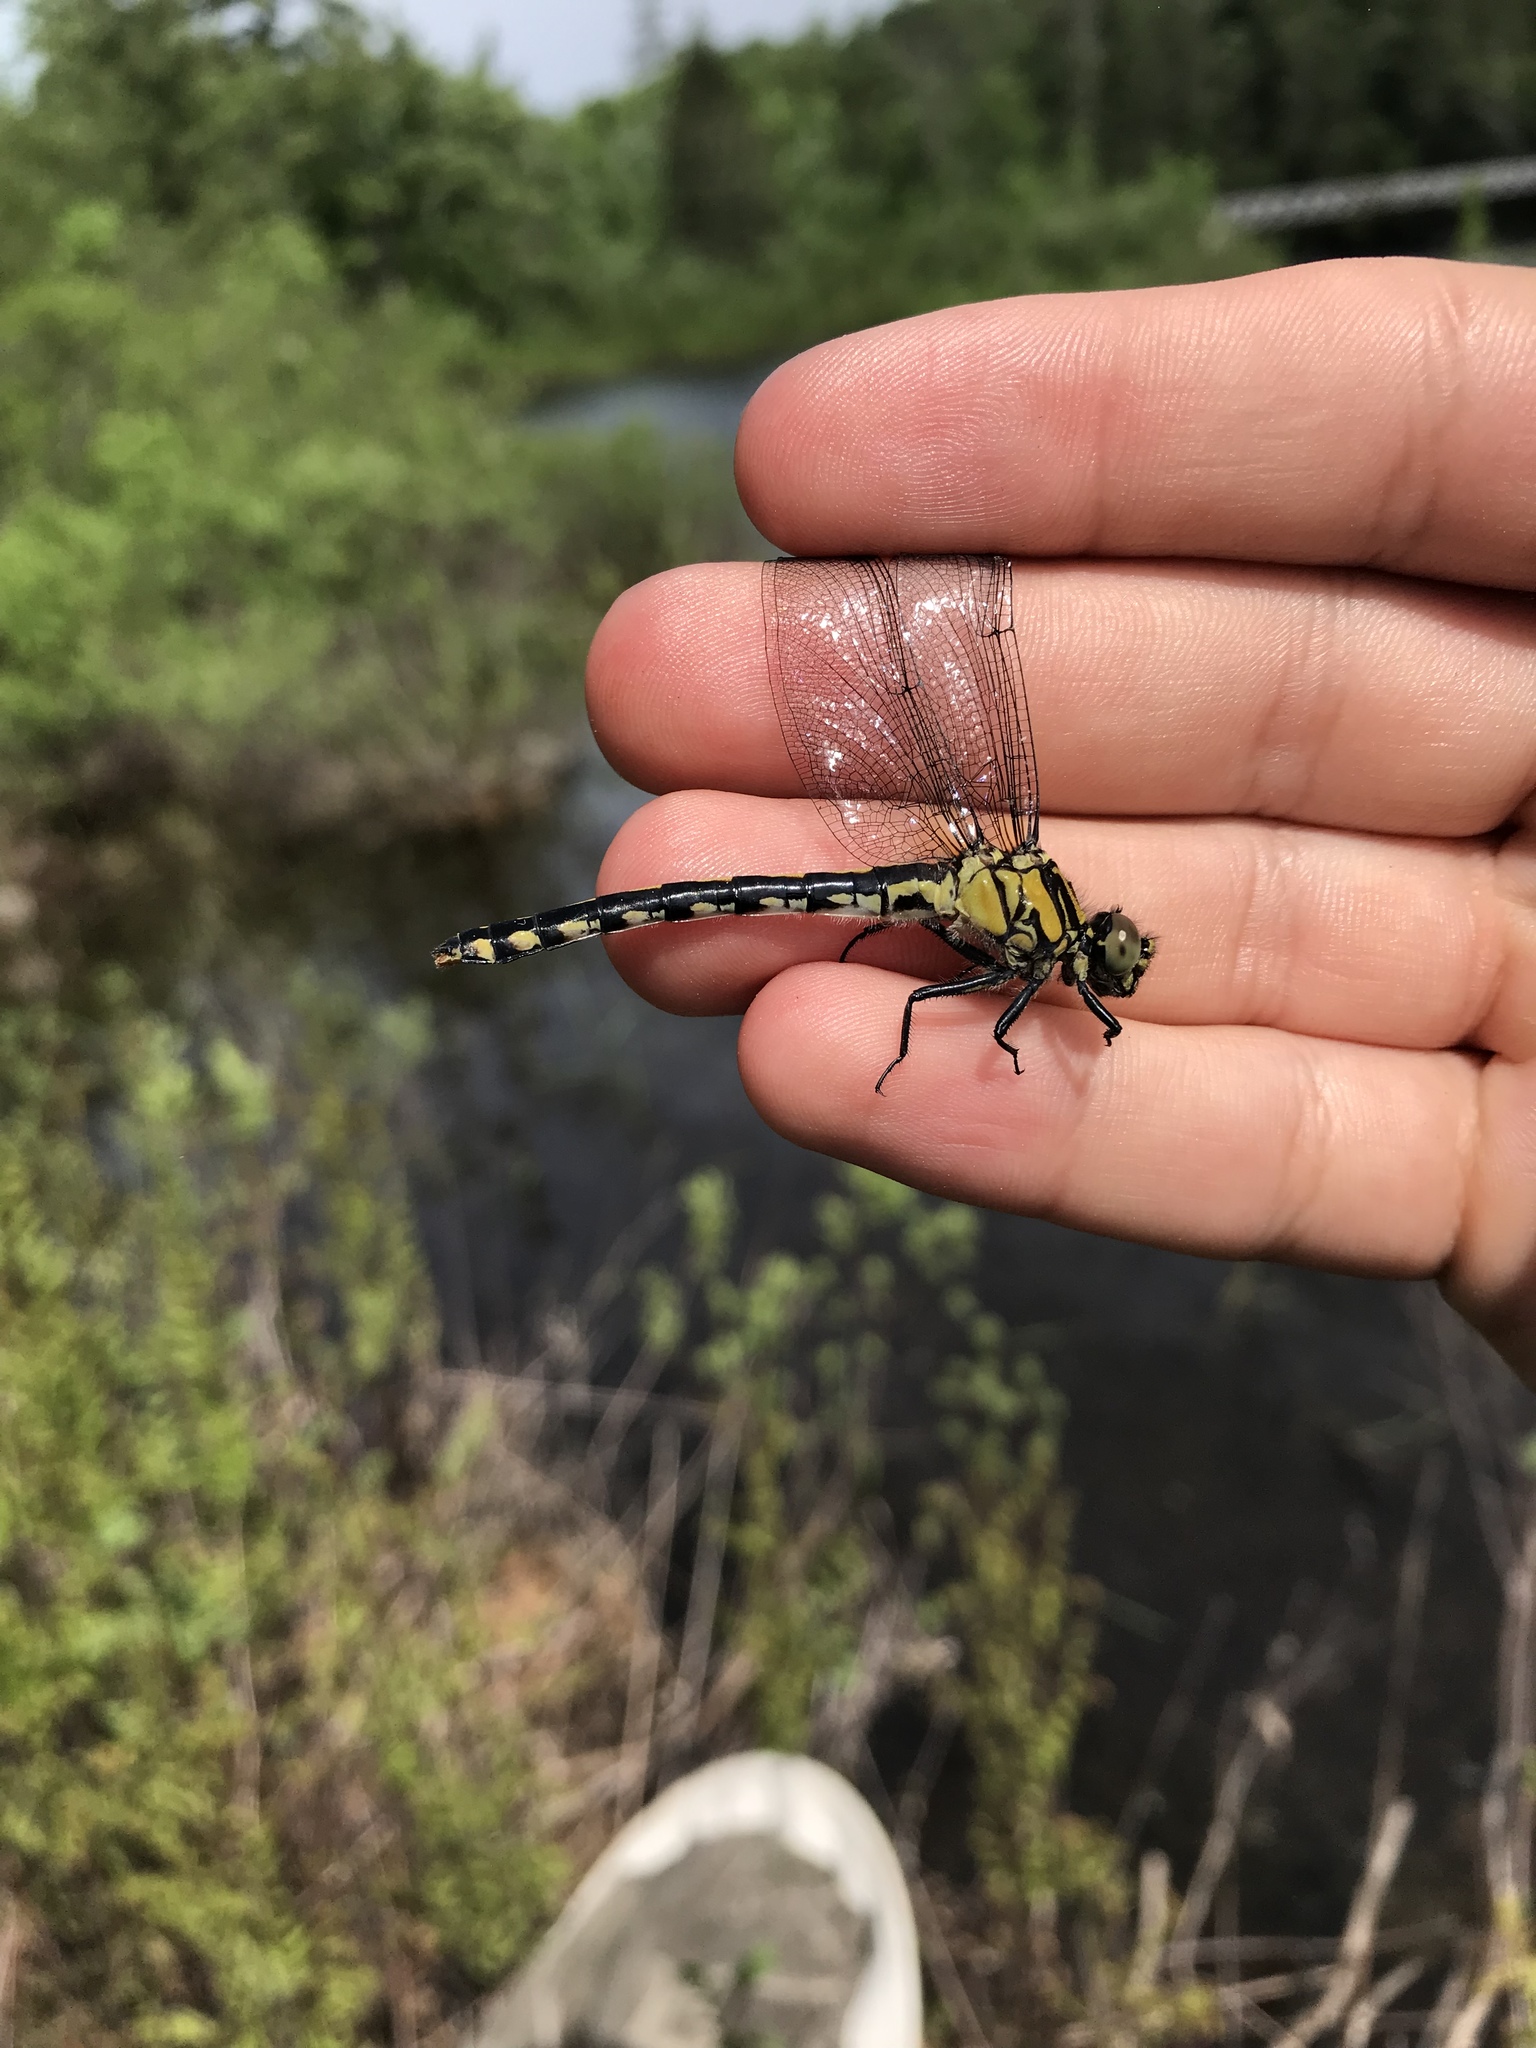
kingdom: Animalia
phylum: Arthropoda
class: Insecta
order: Odonata
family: Gomphidae
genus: Ophiogomphus
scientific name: Ophiogomphus anomalus
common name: Extra-striped snaketail
